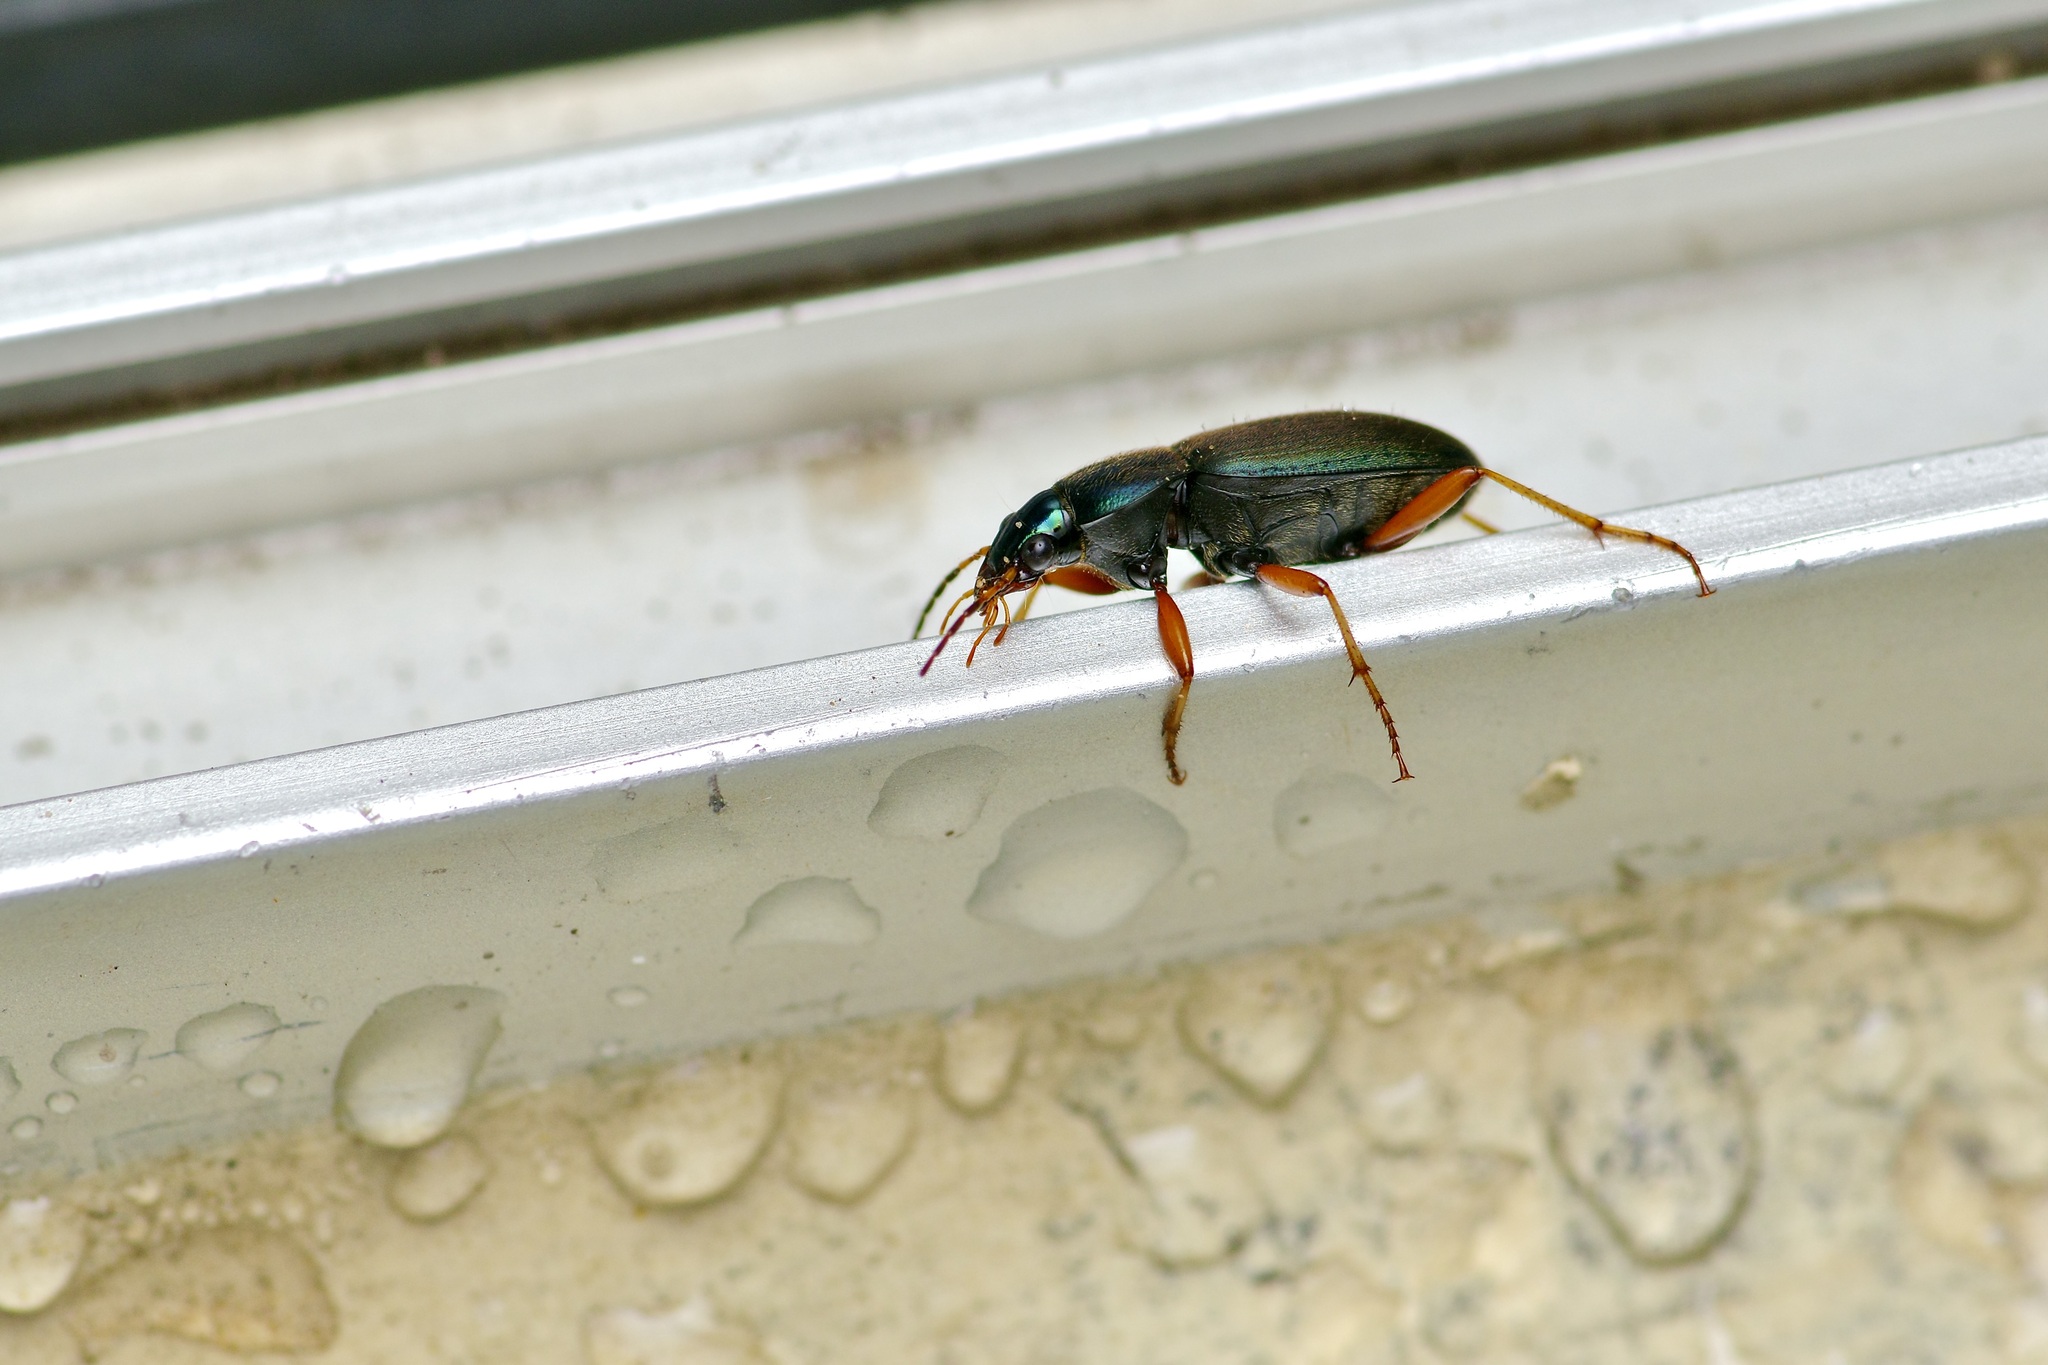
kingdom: Animalia
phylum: Arthropoda
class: Insecta
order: Coleoptera
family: Carabidae
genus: Chlaenius
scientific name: Chlaenius texanus
